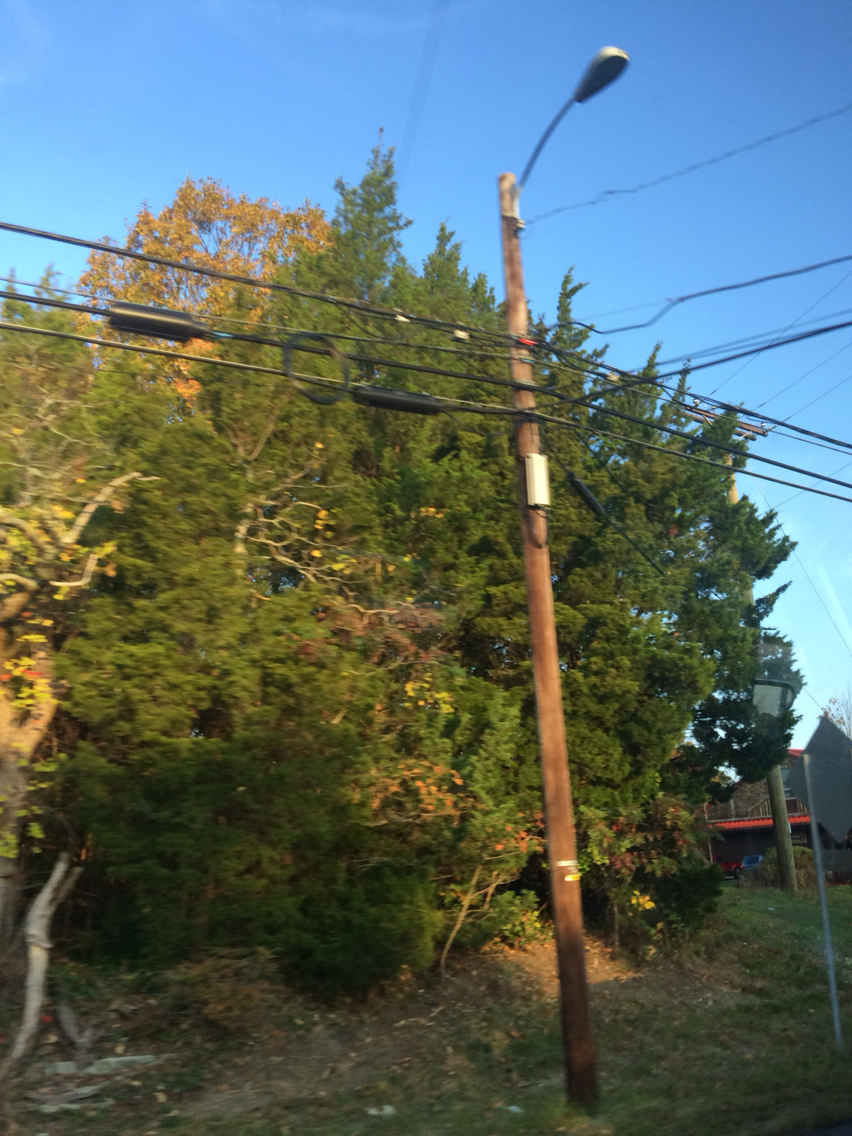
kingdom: Plantae
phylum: Tracheophyta
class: Pinopsida
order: Pinales
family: Cupressaceae
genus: Juniperus
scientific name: Juniperus virginiana
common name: Red juniper
